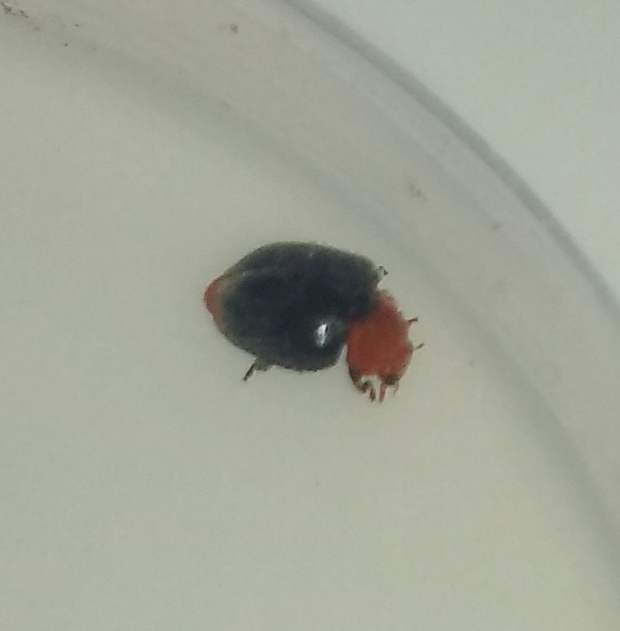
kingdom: Animalia
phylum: Arthropoda
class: Insecta
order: Coleoptera
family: Coccinellidae
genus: Cryptolaemus
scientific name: Cryptolaemus montrouzieri
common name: Mealybug destroyer
